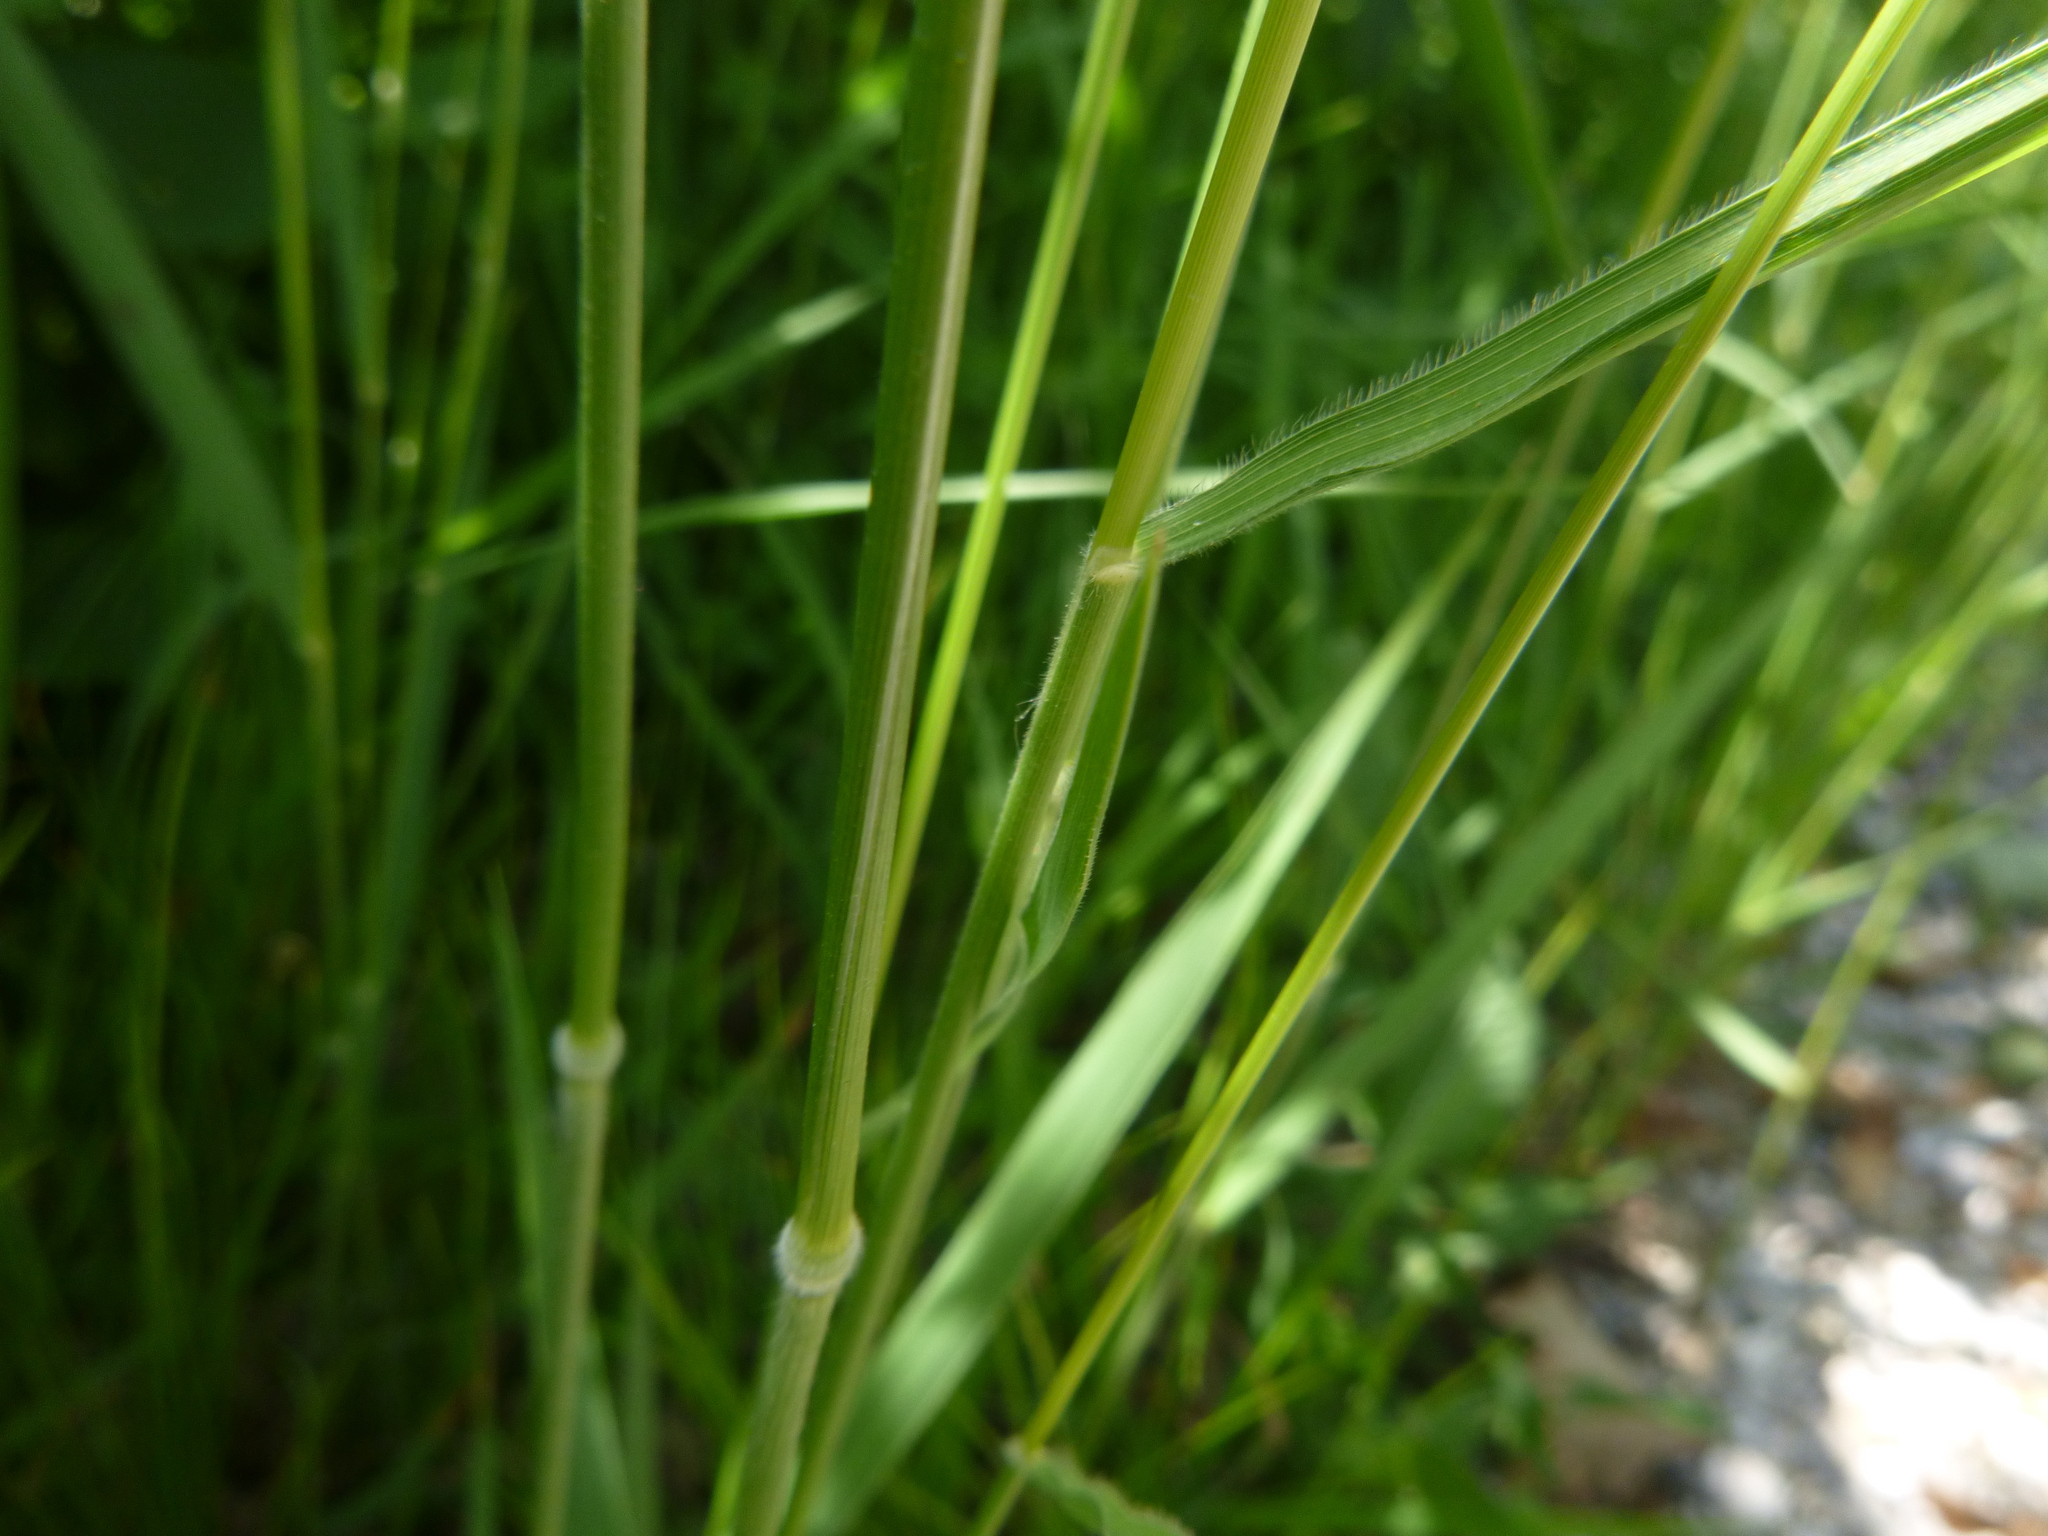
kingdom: Plantae
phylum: Tracheophyta
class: Liliopsida
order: Poales
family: Poaceae
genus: Brachypodium
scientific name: Brachypodium pinnatum
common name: Tor grass
